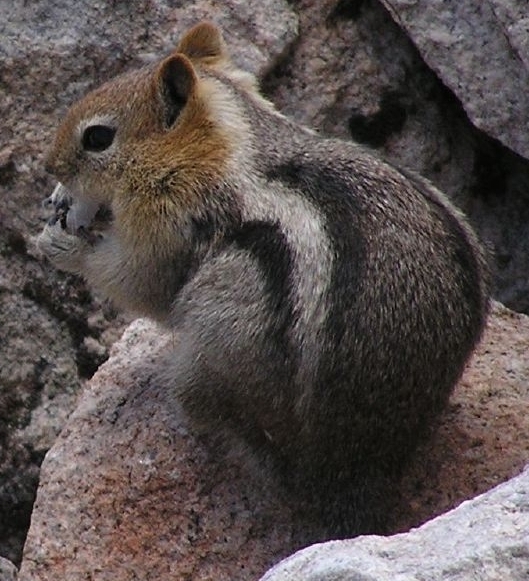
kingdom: Animalia
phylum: Chordata
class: Mammalia
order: Rodentia
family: Sciuridae
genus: Callospermophilus
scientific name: Callospermophilus lateralis
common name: Golden-mantled ground squirrel
